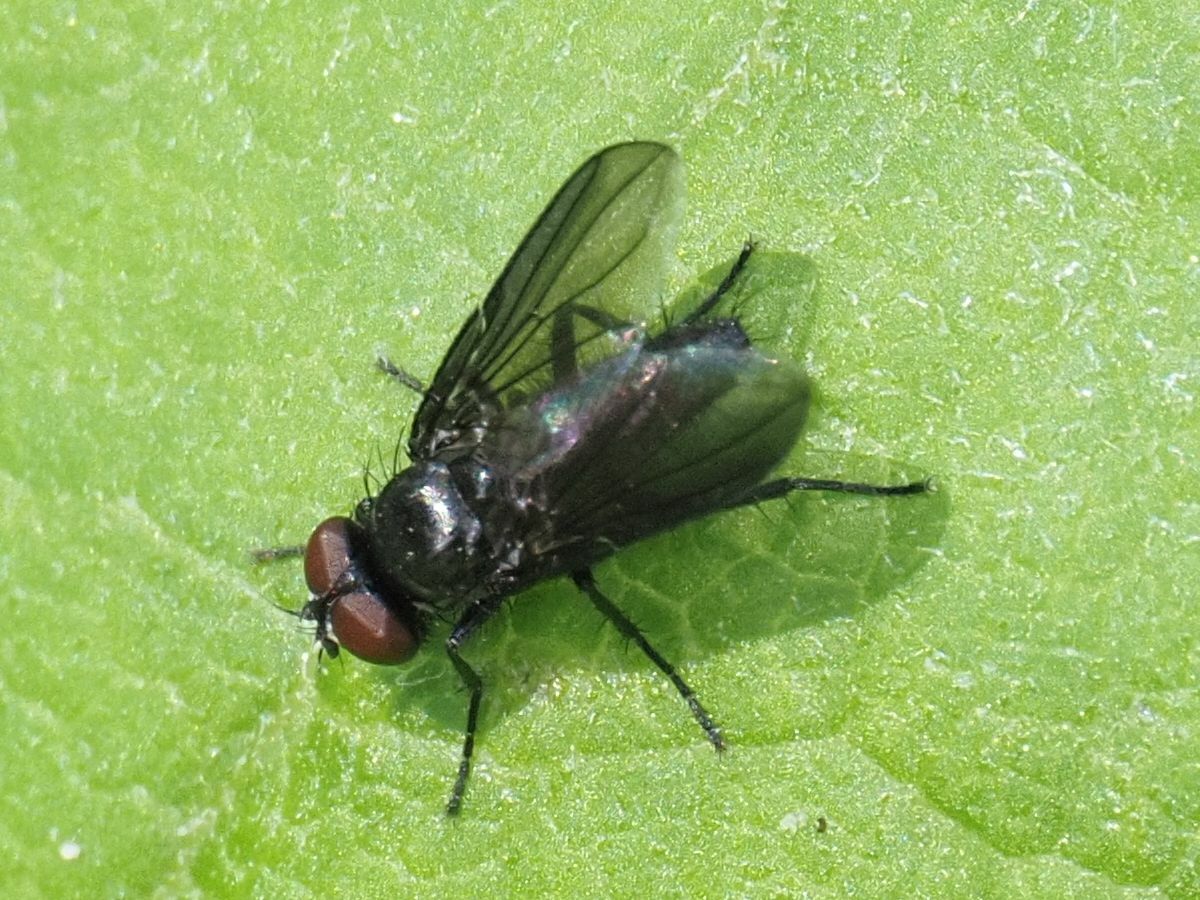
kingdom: Animalia
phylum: Arthropoda
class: Insecta
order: Diptera
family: Calliphoridae
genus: Melanomya
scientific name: Melanomya nana
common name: Little black blowfly
